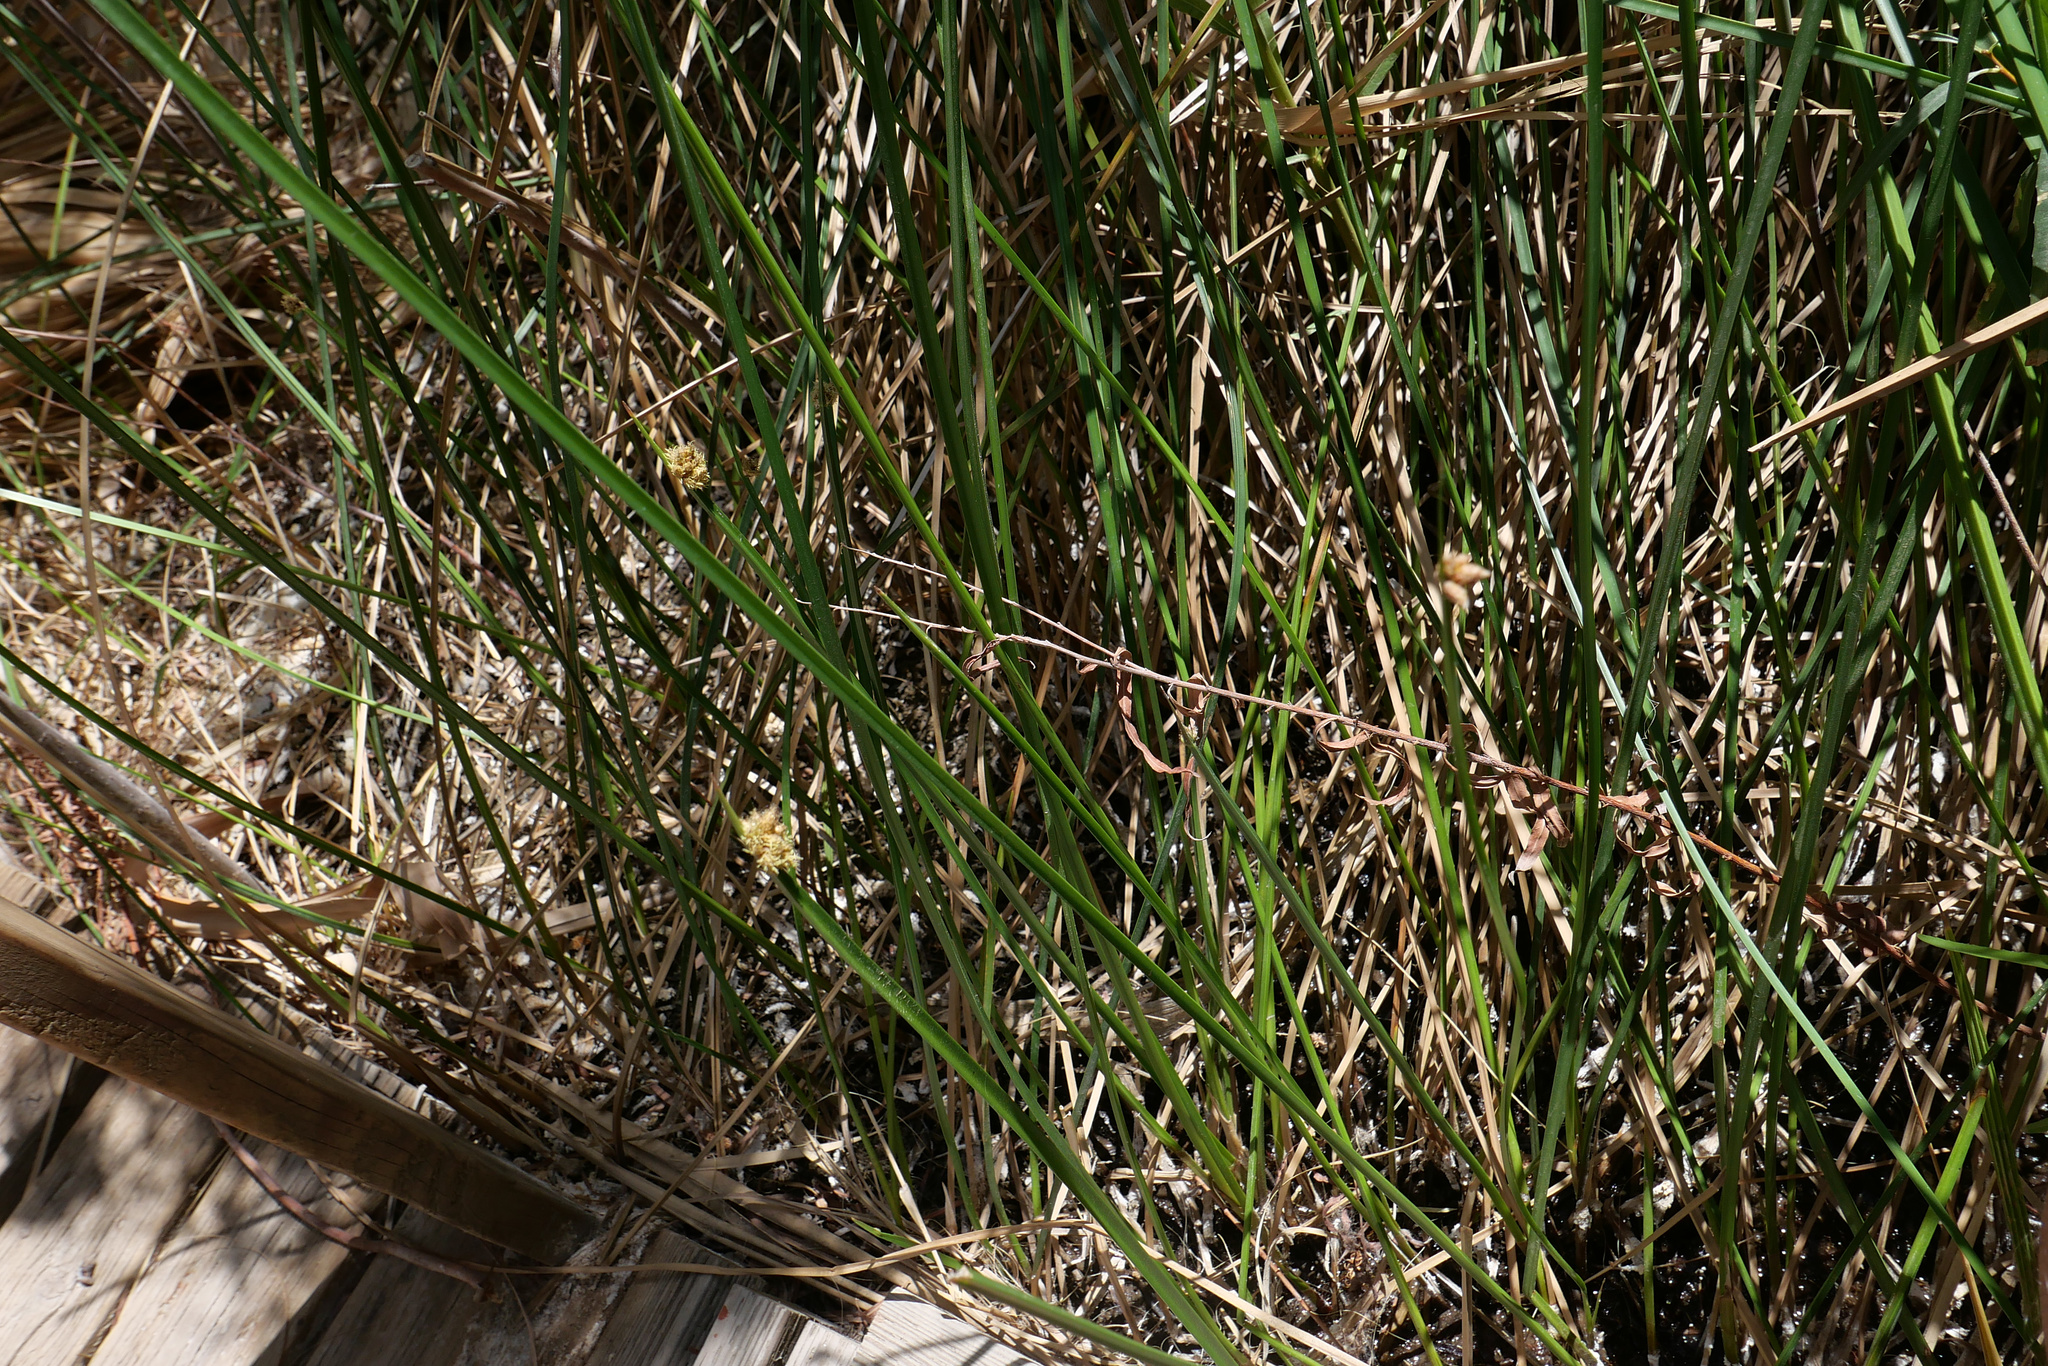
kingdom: Plantae
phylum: Tracheophyta
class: Liliopsida
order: Poales
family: Cyperaceae
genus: Schoenoplectus
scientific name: Schoenoplectus americanus
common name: American three-square bulrush
